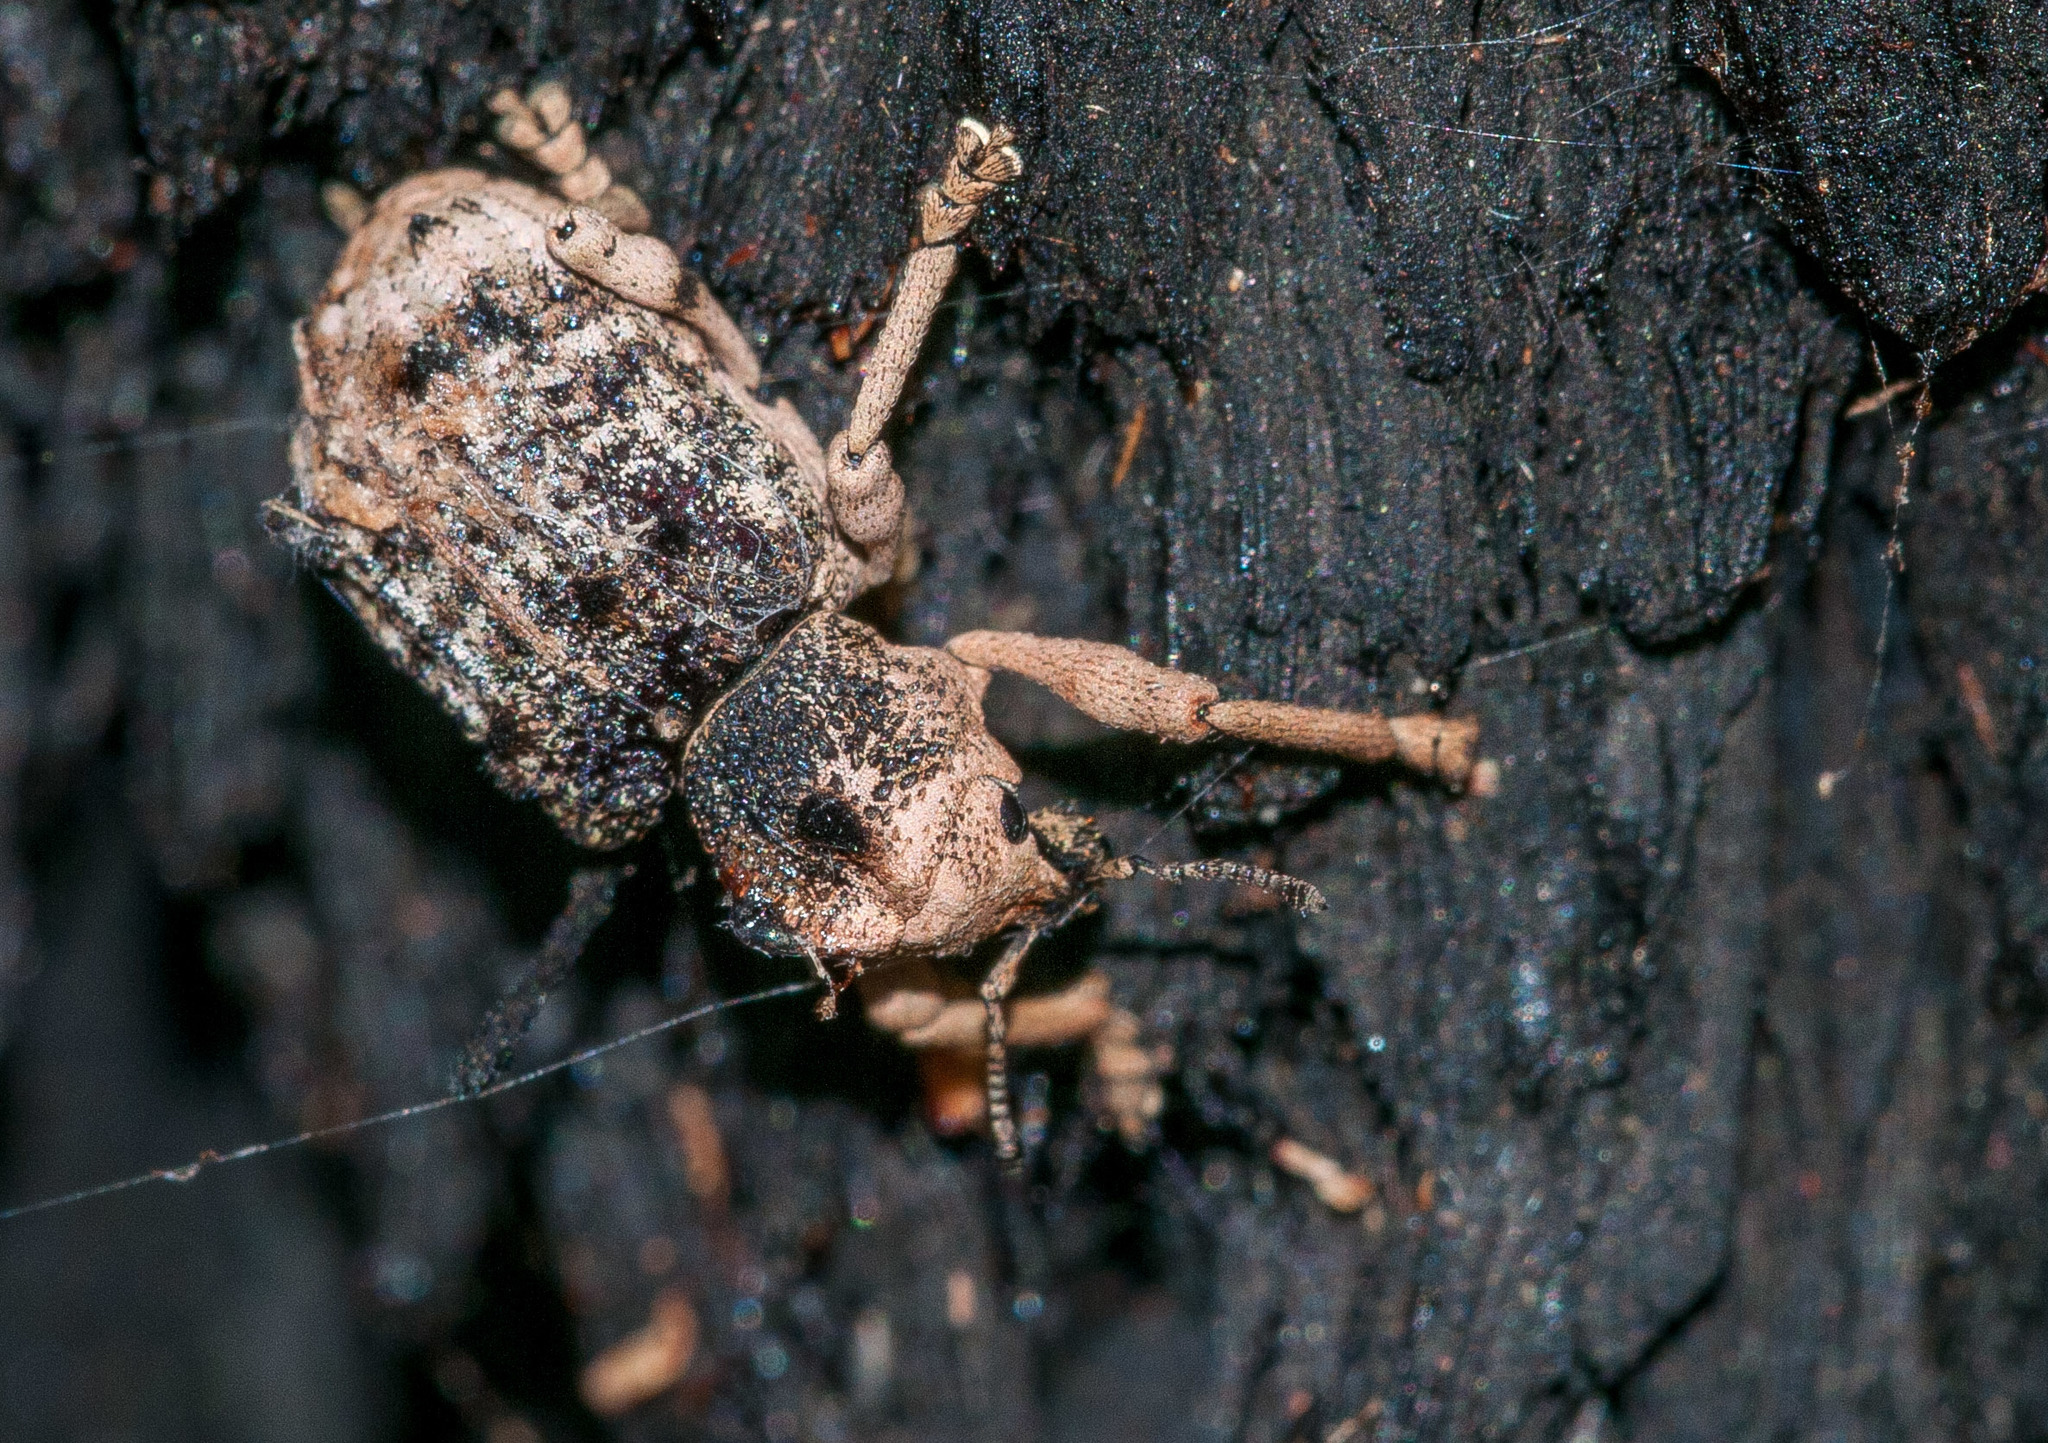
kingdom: Animalia
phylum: Arthropoda
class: Insecta
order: Coleoptera
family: Curculionidae
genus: Aades
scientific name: Aades cultratus
